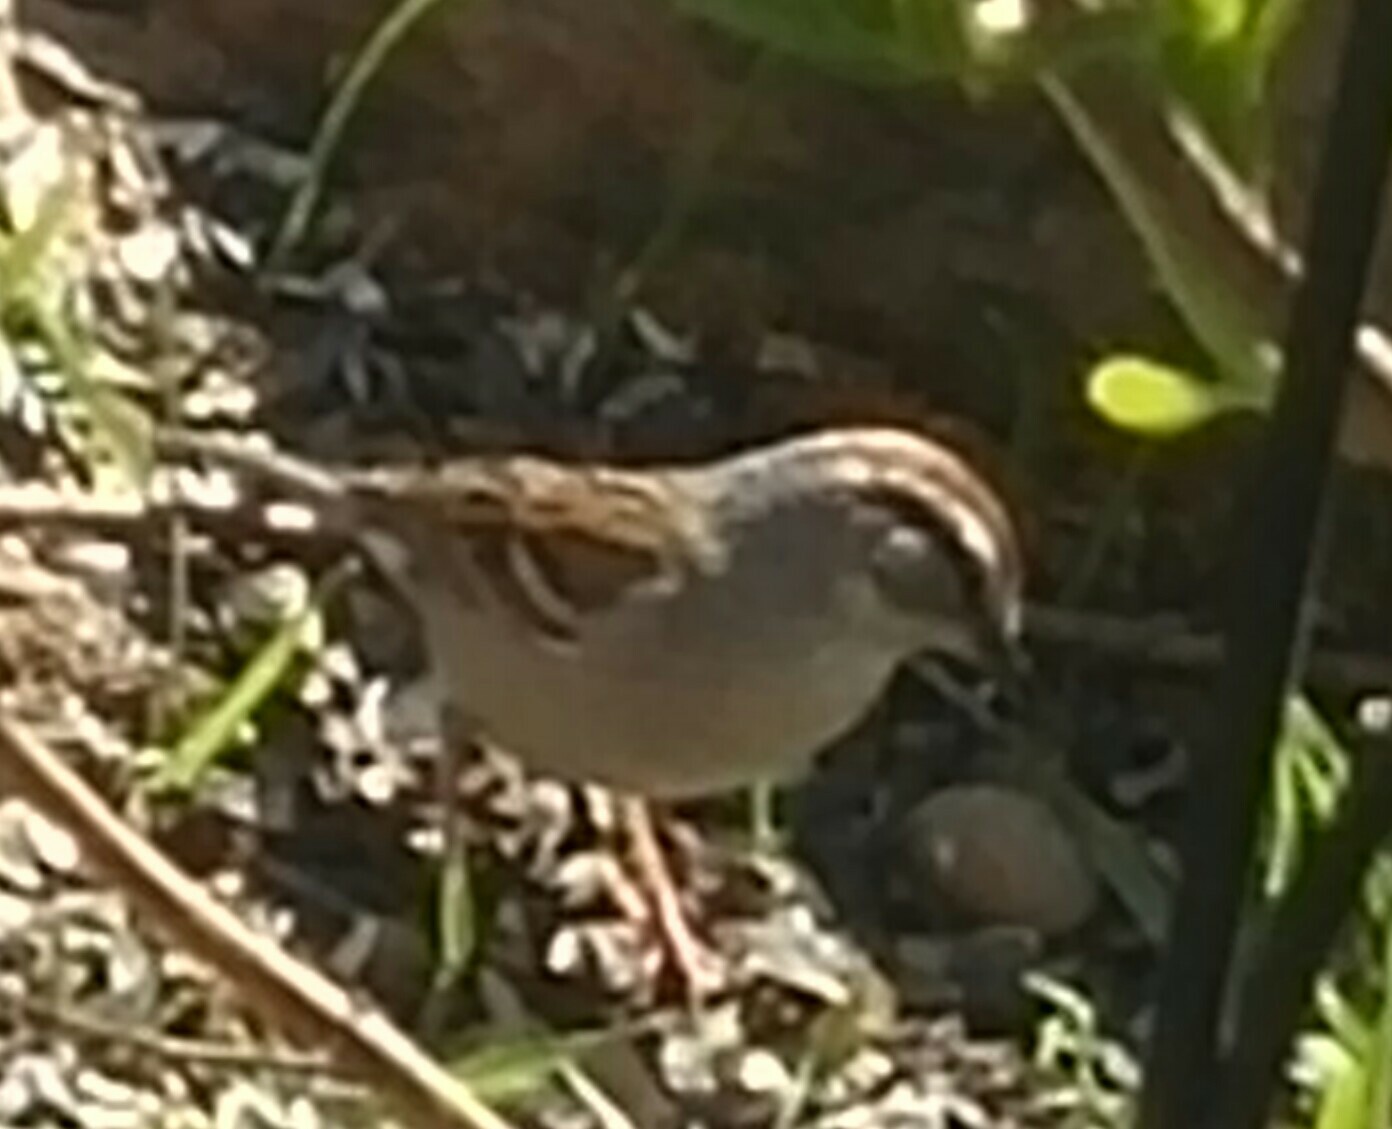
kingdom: Animalia
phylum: Chordata
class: Aves
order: Passeriformes
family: Passerellidae
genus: Spizella
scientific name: Spizella passerina
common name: Chipping sparrow
